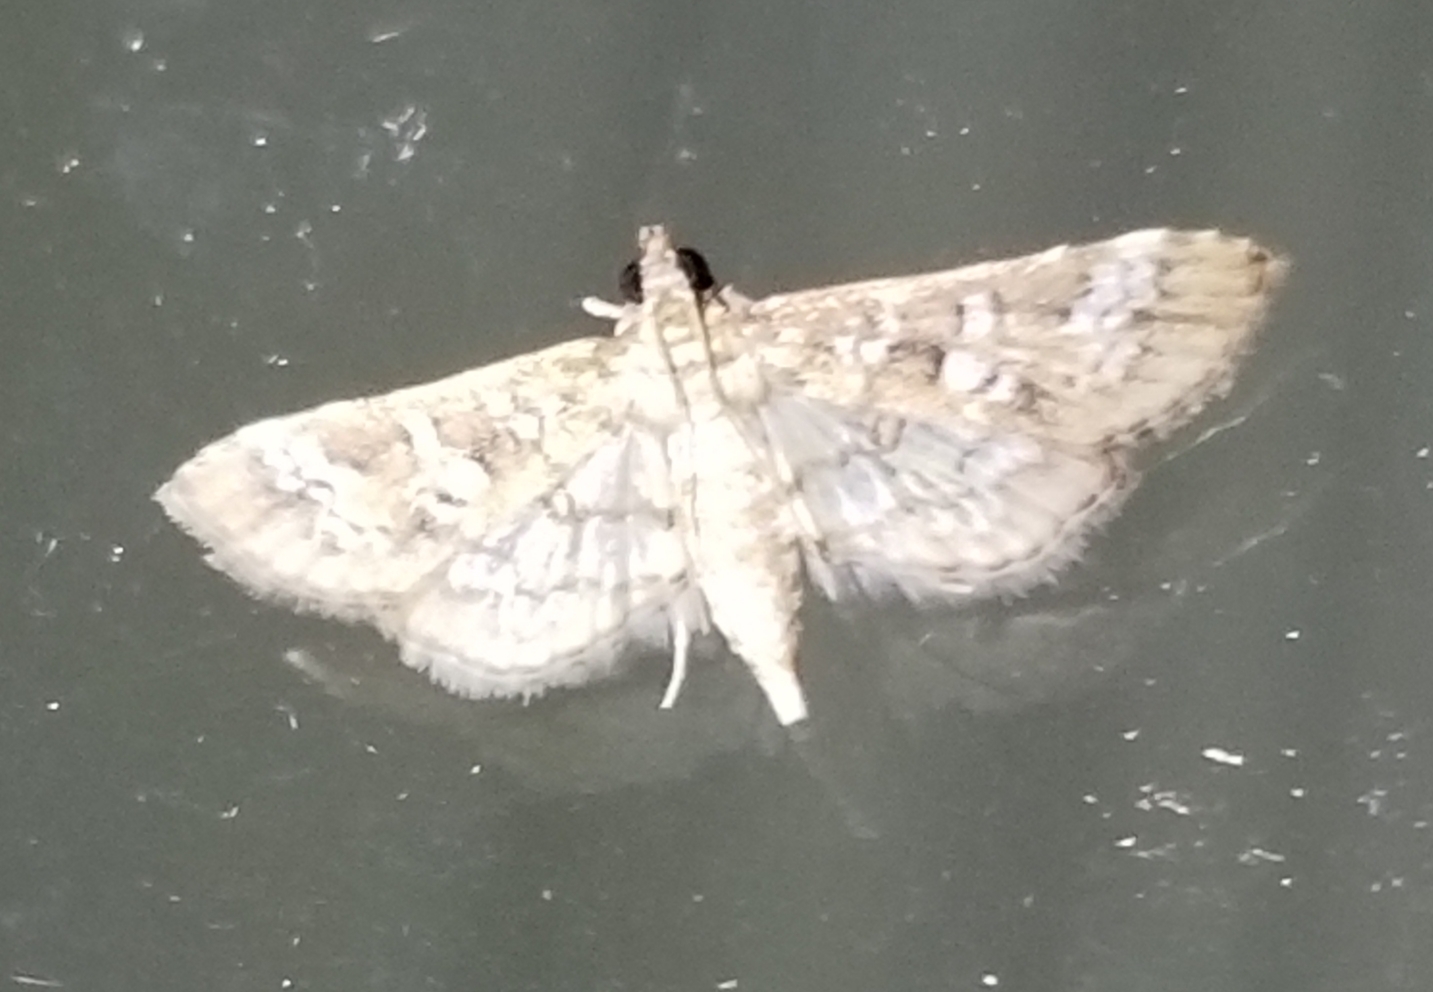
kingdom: Animalia
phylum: Arthropoda
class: Insecta
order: Lepidoptera
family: Crambidae
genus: Samea
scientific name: Samea multiplicalis
